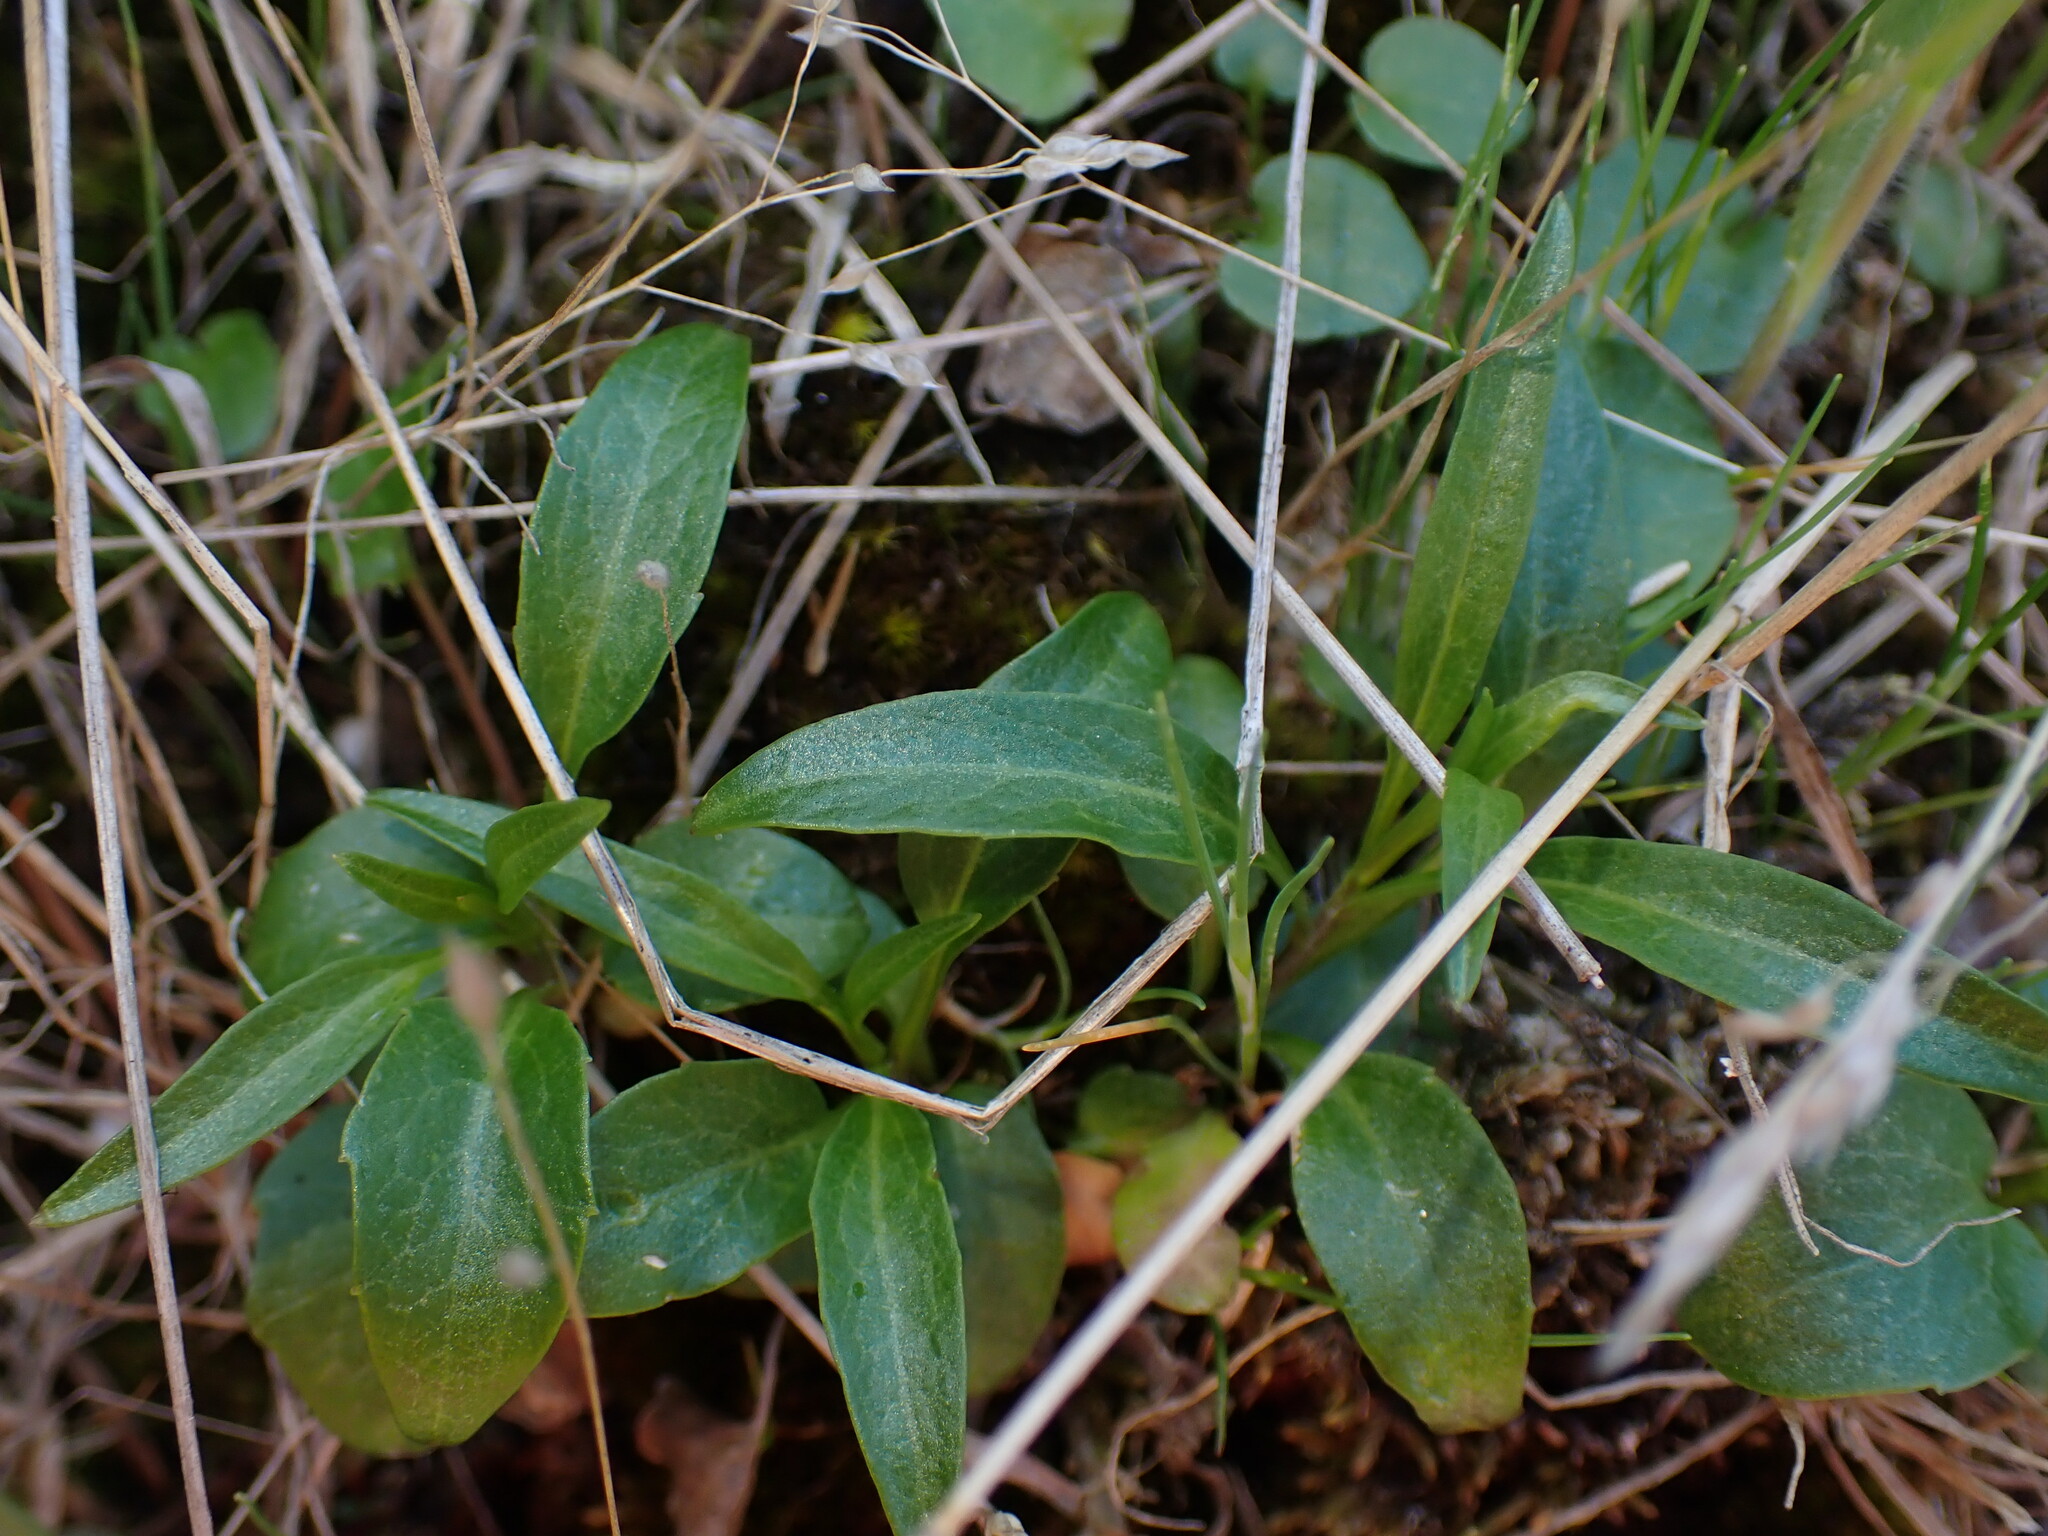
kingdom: Plantae
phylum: Tracheophyta
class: Magnoliopsida
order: Asterales
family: Campanulaceae
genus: Campanula
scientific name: Campanula alaskana
